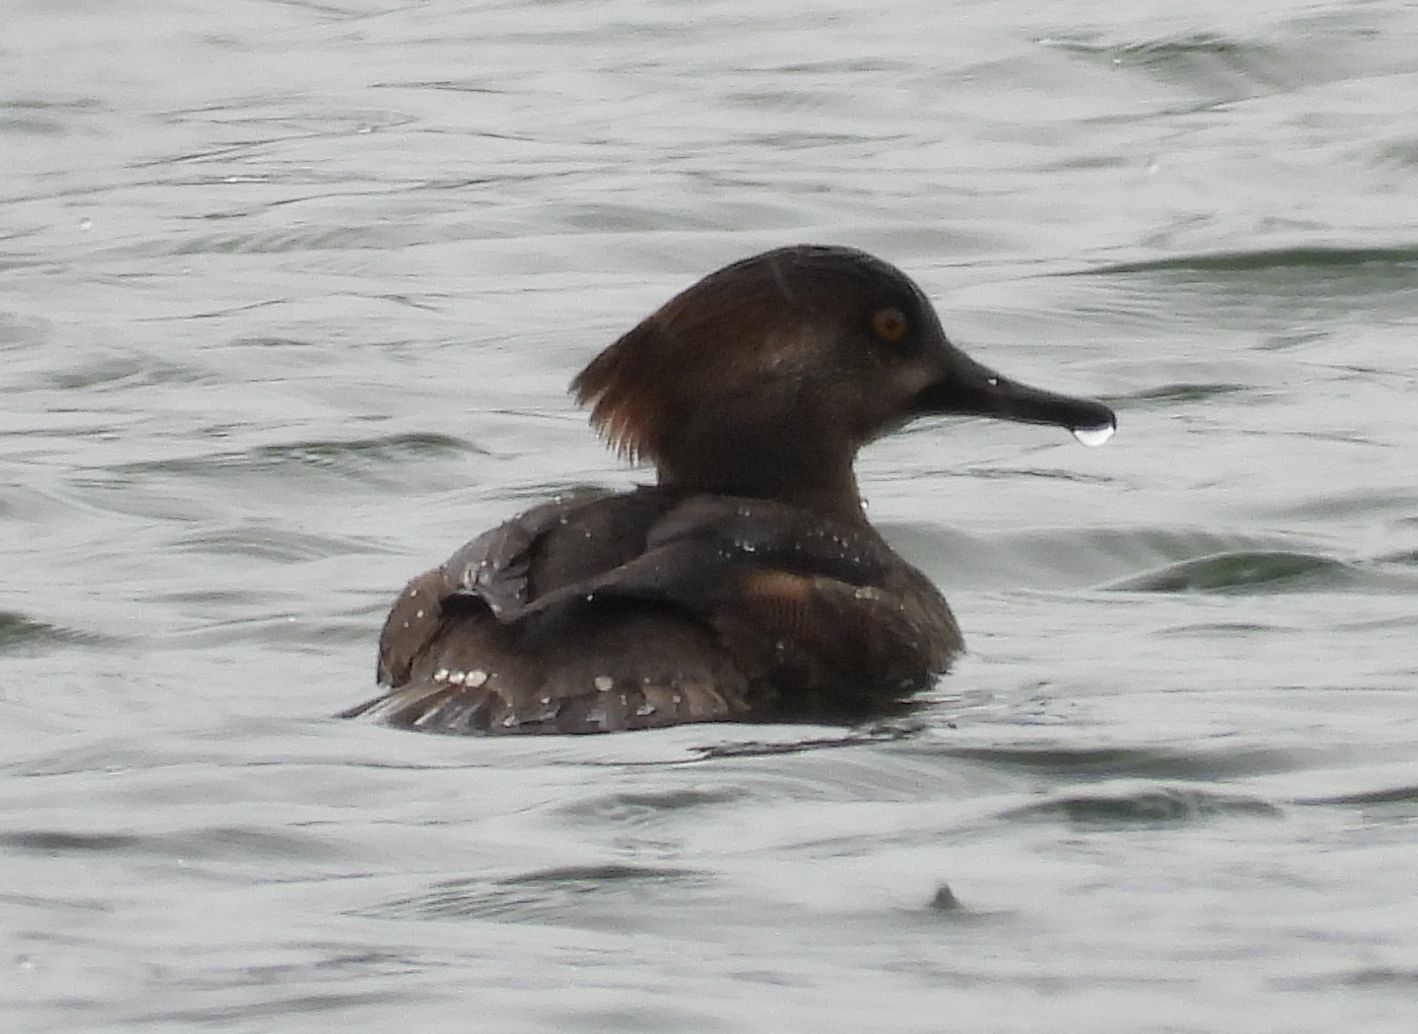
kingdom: Animalia
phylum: Chordata
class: Aves
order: Anseriformes
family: Anatidae
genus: Lophodytes
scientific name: Lophodytes cucullatus
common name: Hooded merganser
